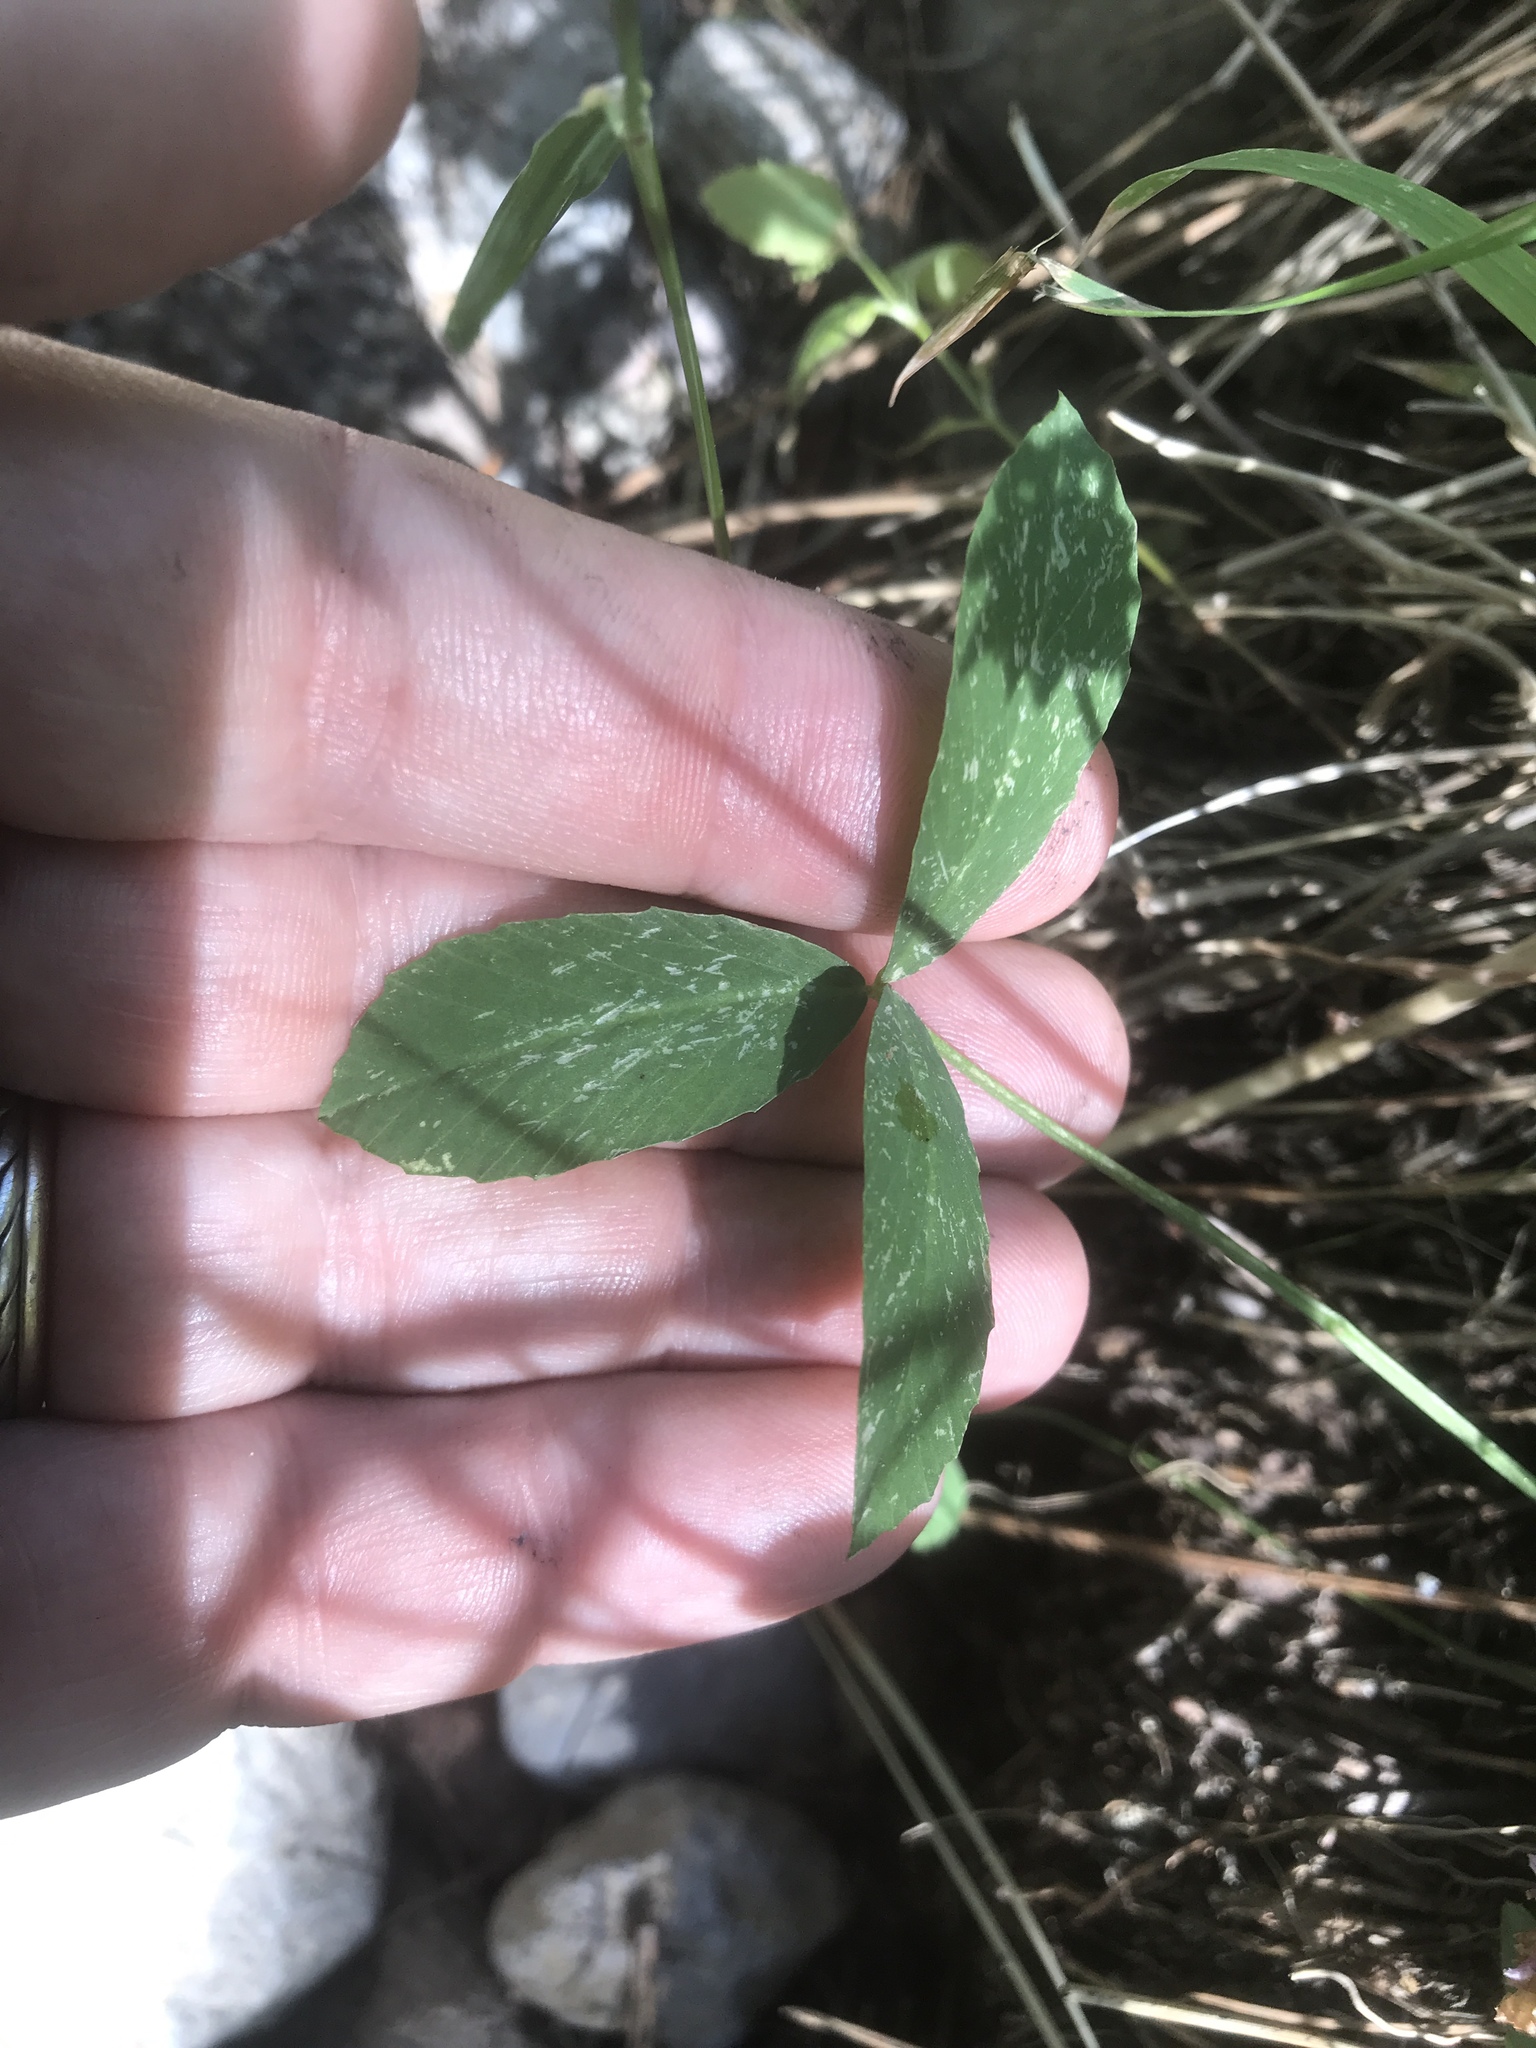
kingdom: Plantae
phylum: Tracheophyta
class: Magnoliopsida
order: Fabales
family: Fabaceae
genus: Trifolium
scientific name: Trifolium productum
